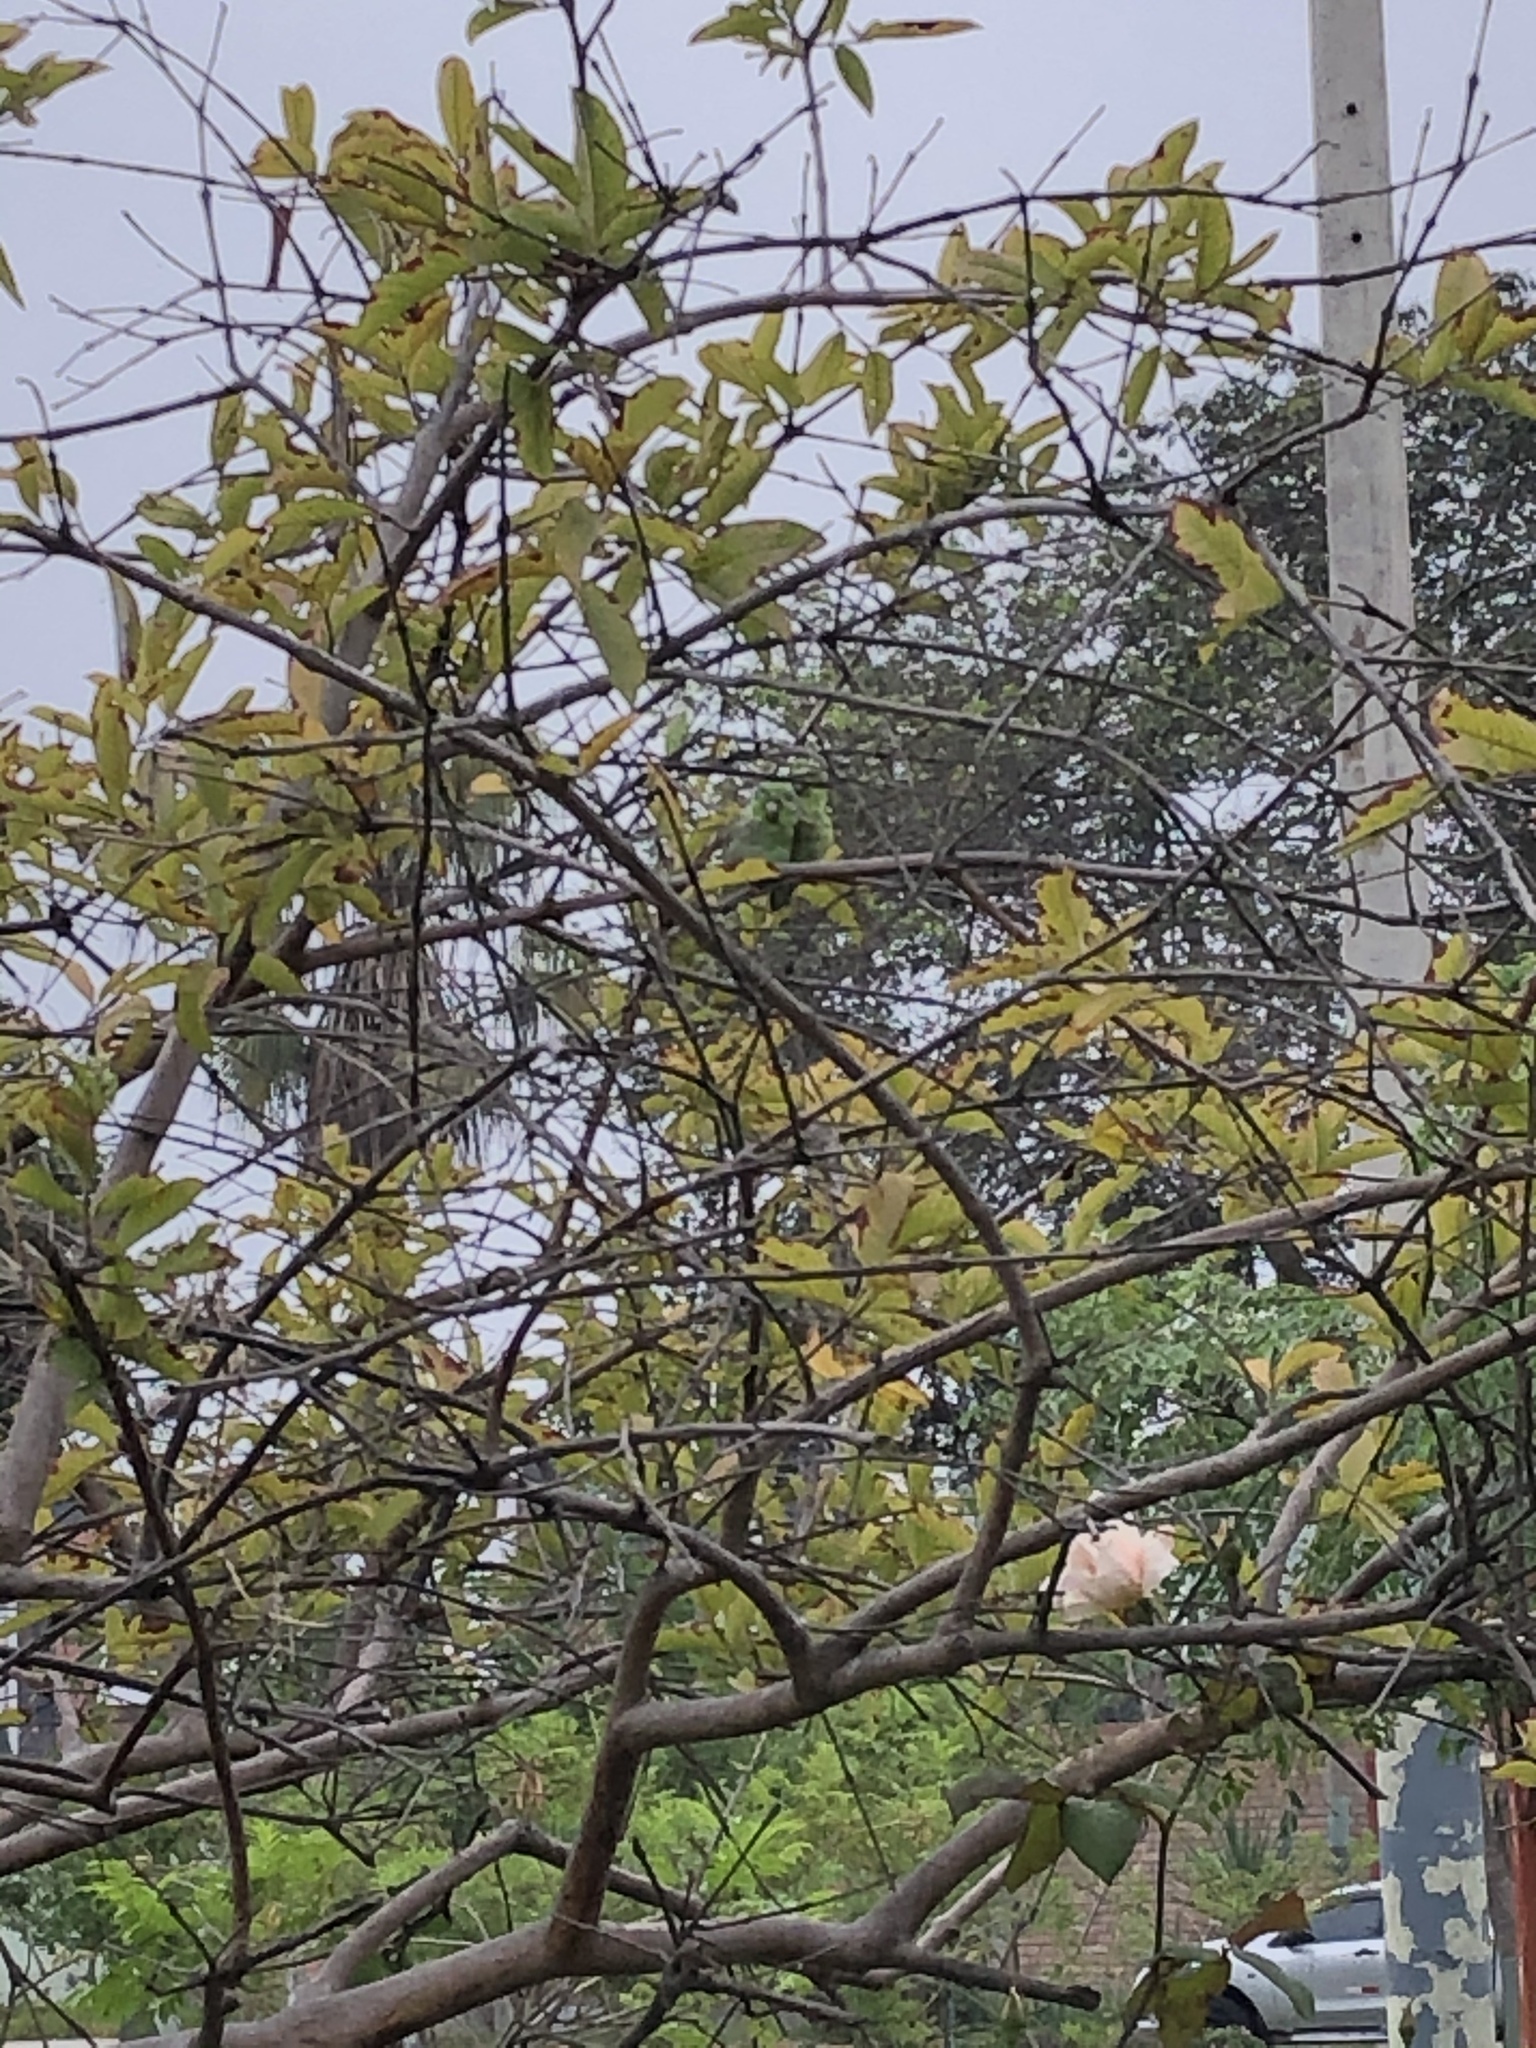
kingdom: Animalia
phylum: Chordata
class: Aves
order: Psittaciformes
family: Psittacidae
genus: Forpus
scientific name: Forpus coelestis
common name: Pacific parrotlet
